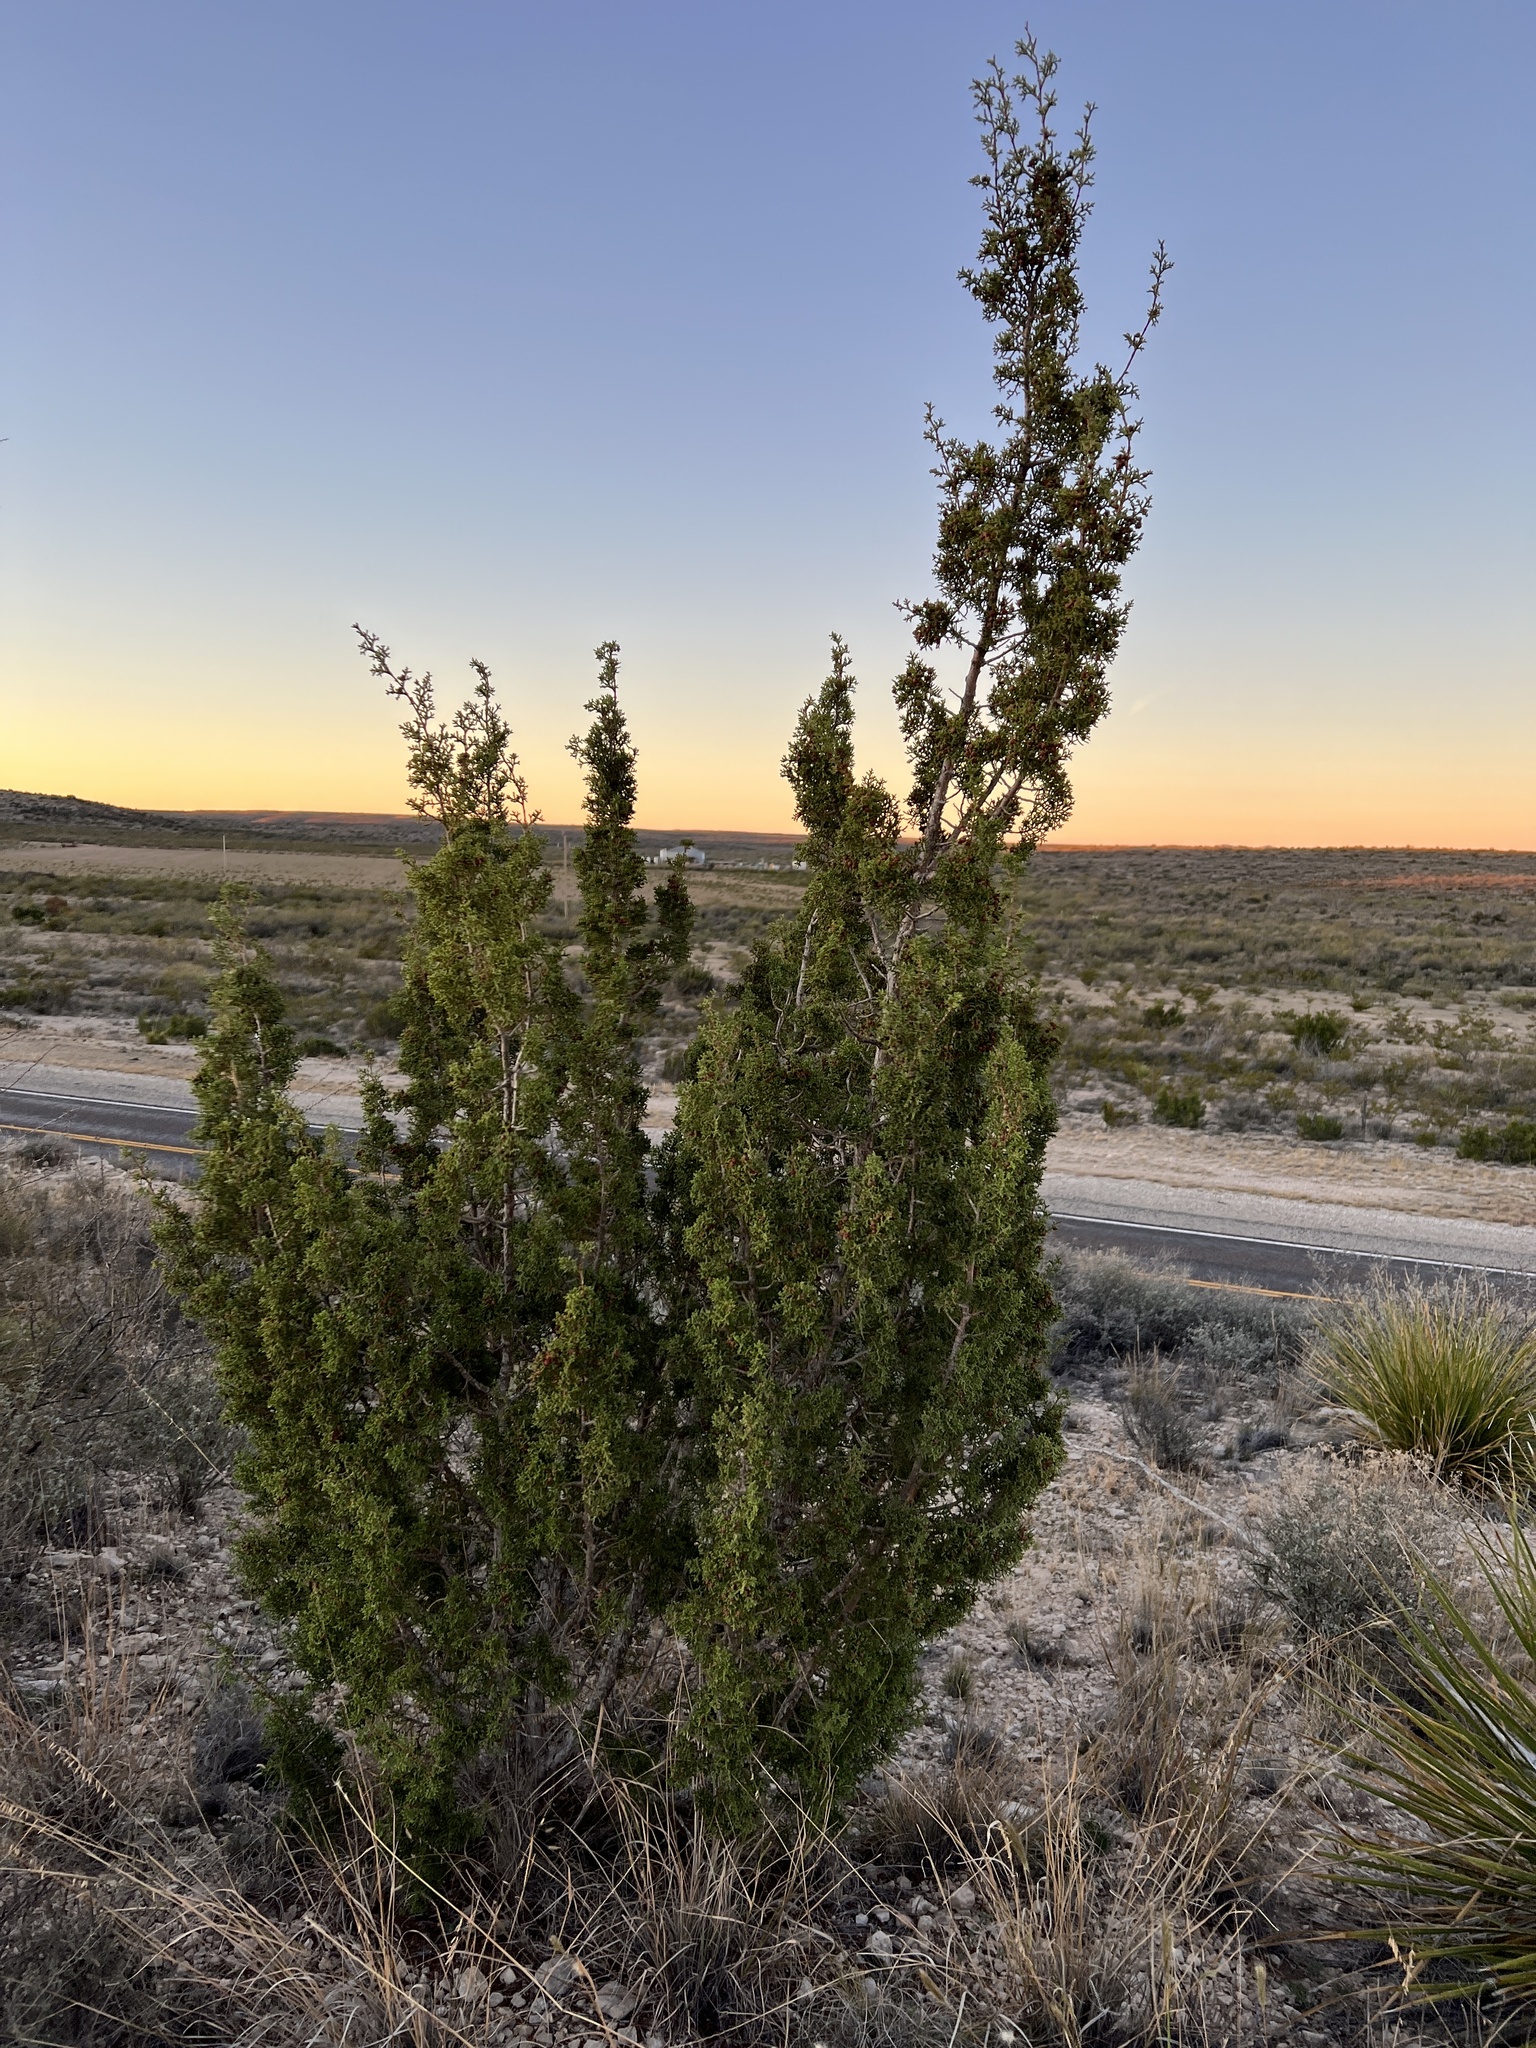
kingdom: Plantae
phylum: Tracheophyta
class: Pinopsida
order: Pinales
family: Cupressaceae
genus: Juniperus
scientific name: Juniperus pinchotii
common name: Pinchot juniper
